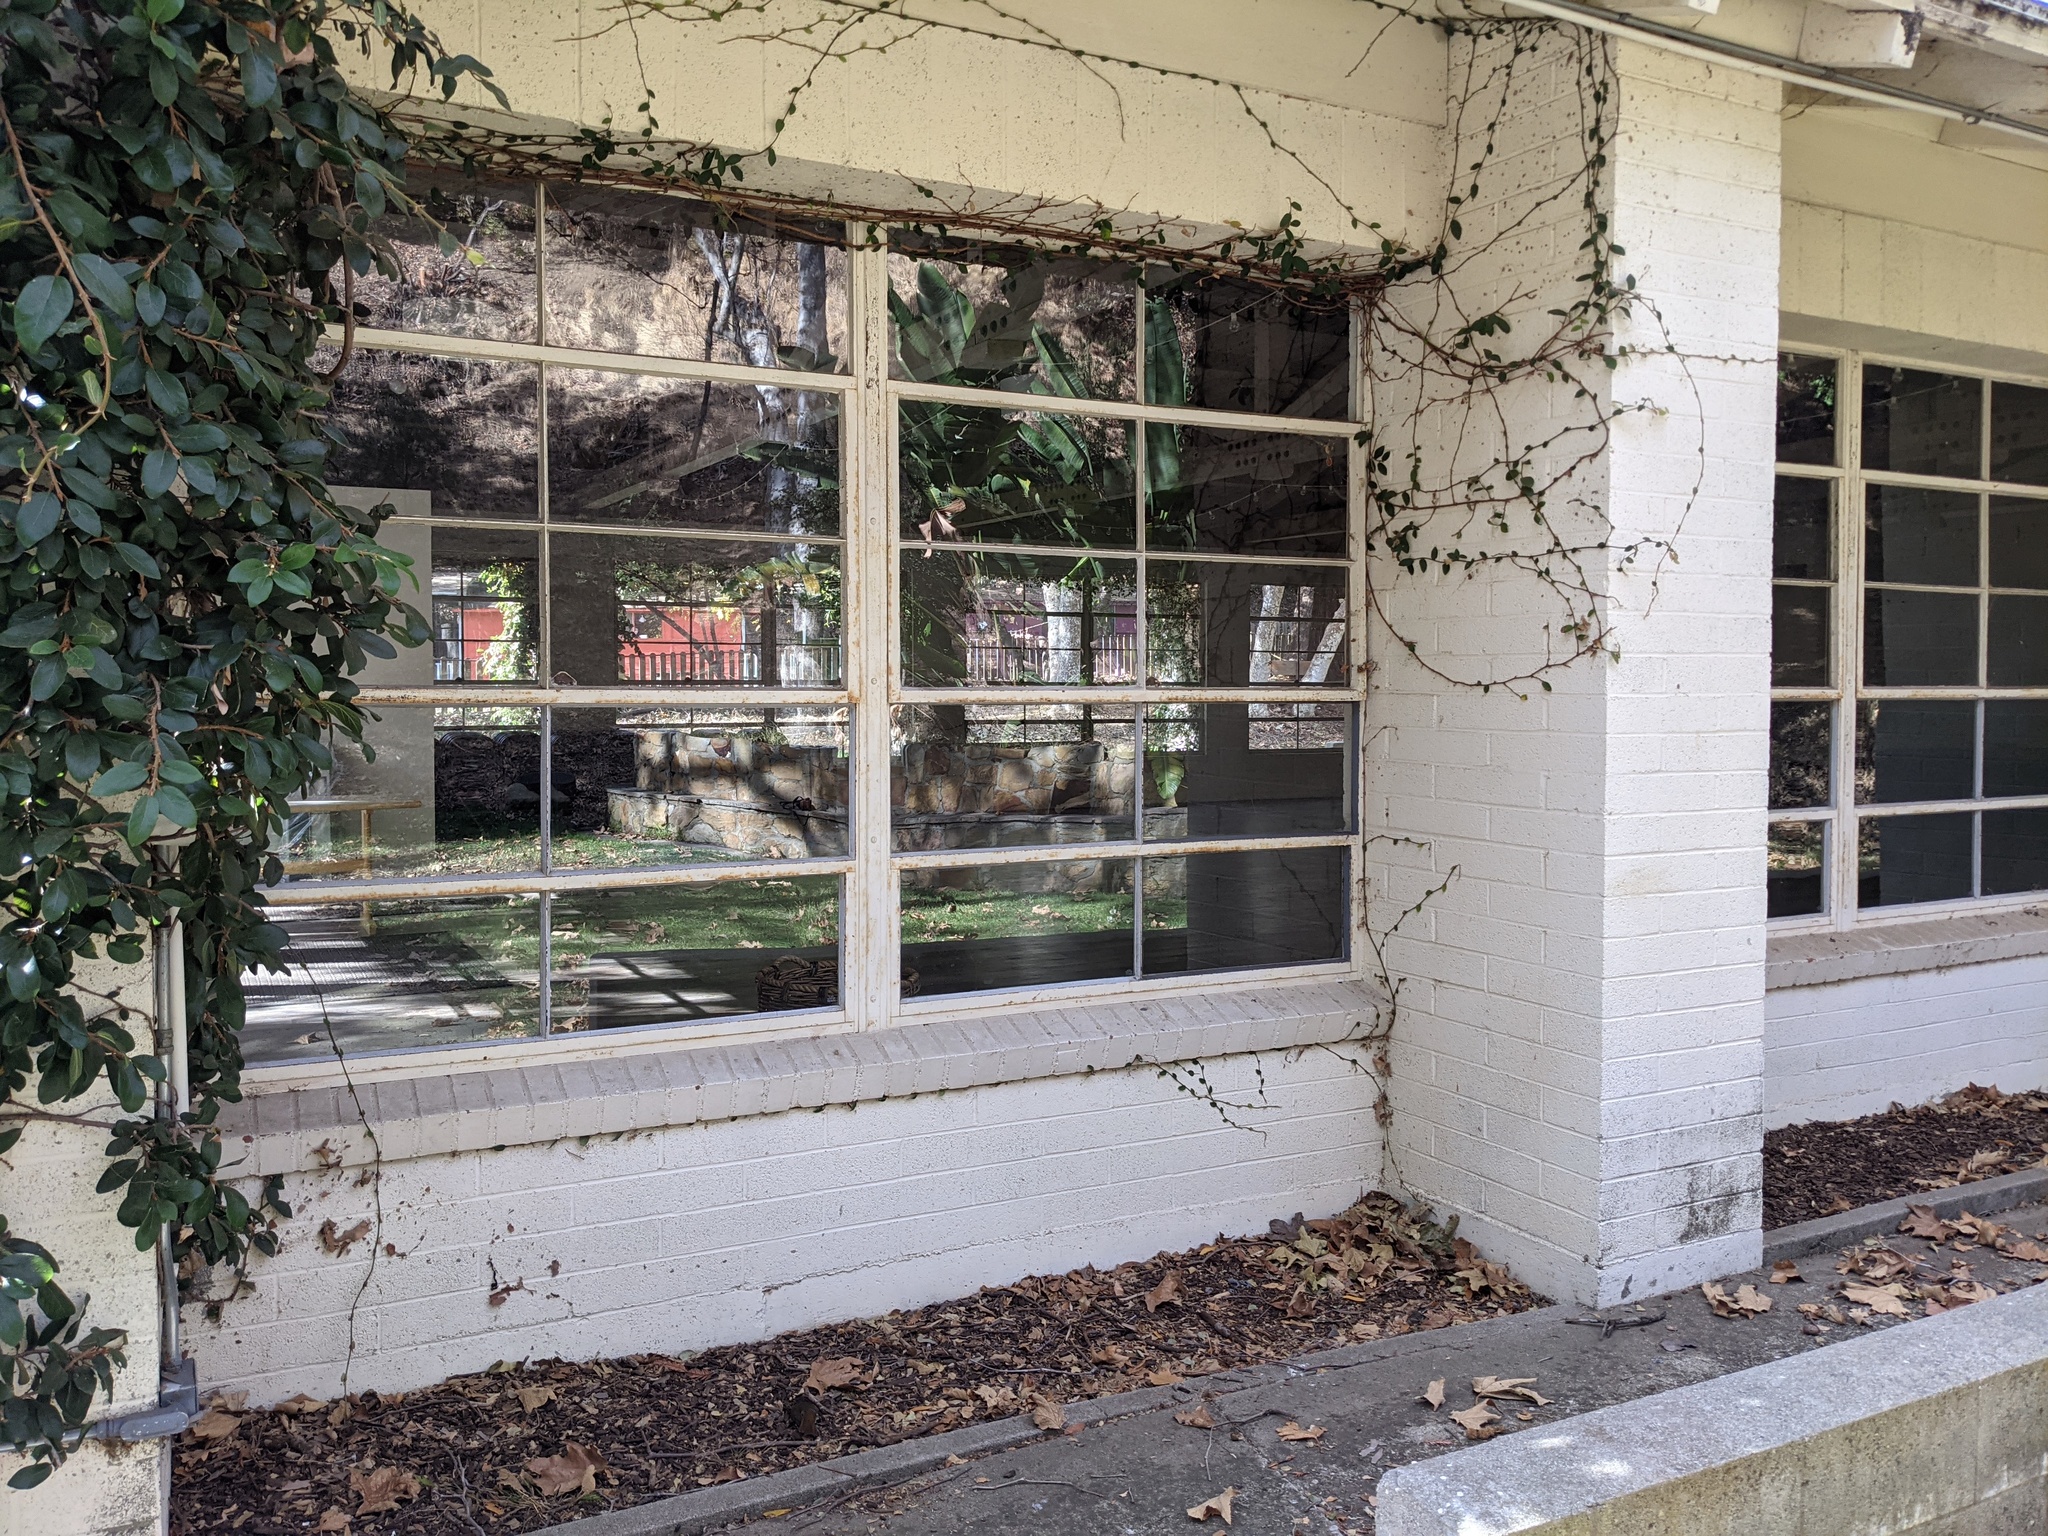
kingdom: Animalia
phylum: Chordata
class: Aves
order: Passeriformes
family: Parulidae
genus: Setophaga
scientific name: Setophaga coronata
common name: Myrtle warbler
